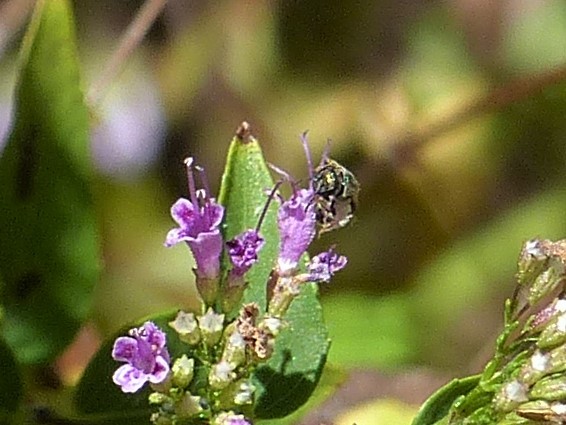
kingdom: Animalia
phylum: Arthropoda
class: Insecta
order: Hymenoptera
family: Halictidae
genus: Dialictus
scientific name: Dialictus
